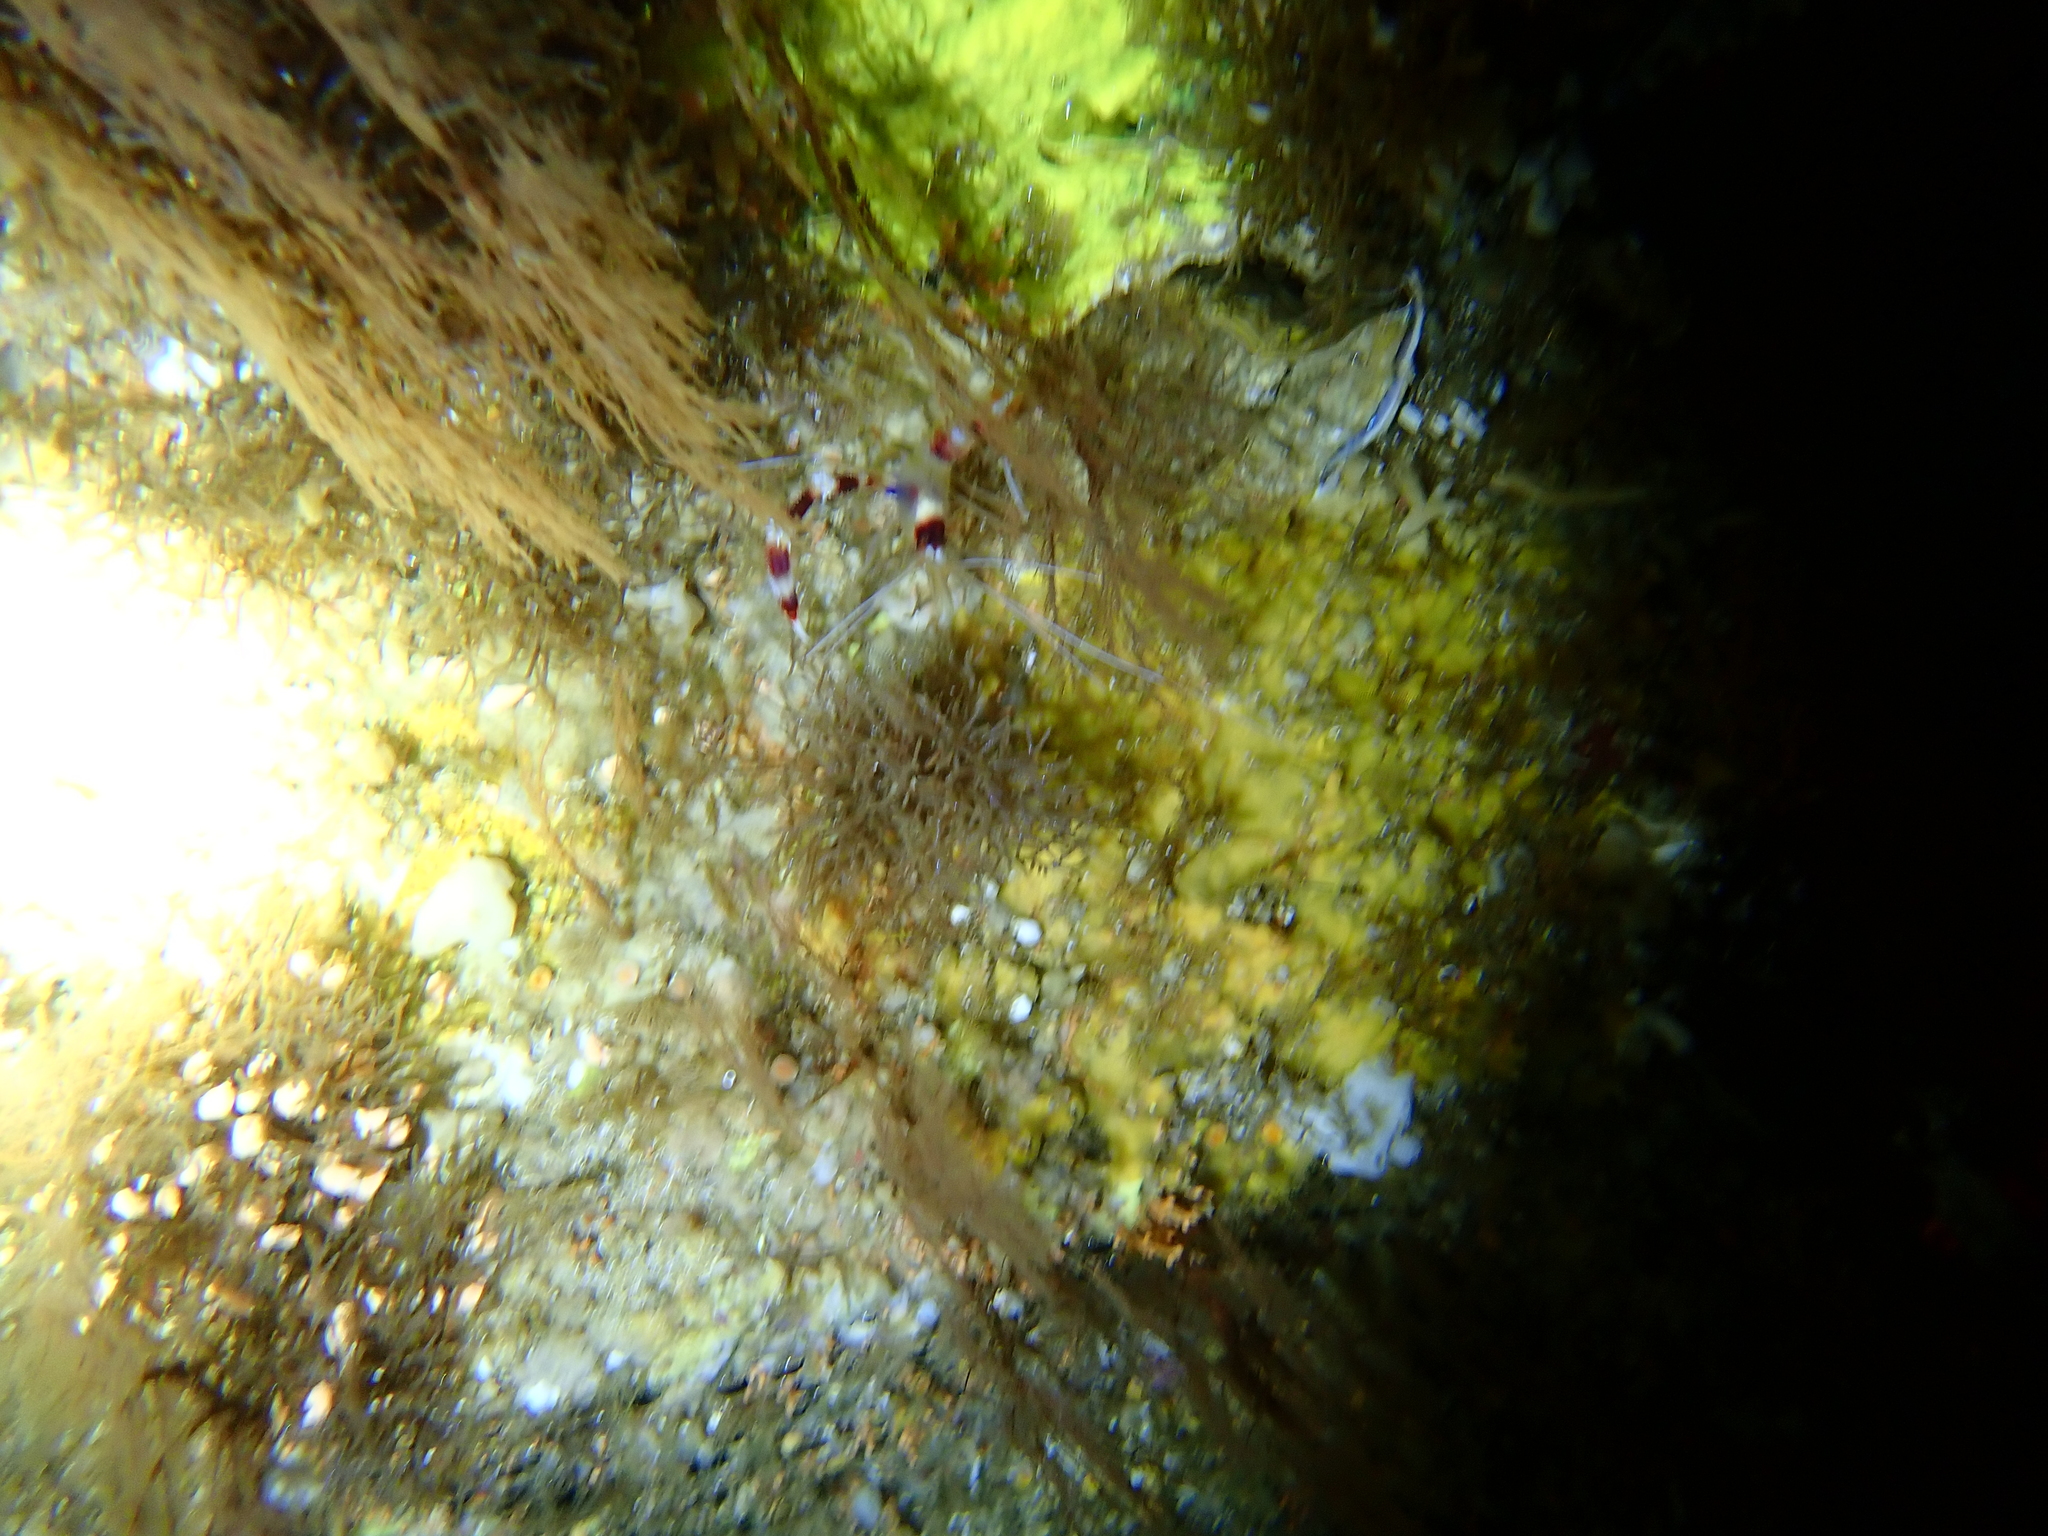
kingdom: Animalia
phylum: Arthropoda
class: Malacostraca
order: Decapoda
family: Stenopodidae
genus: Stenopus
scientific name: Stenopus hispidus
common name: Banded coral shrimp
